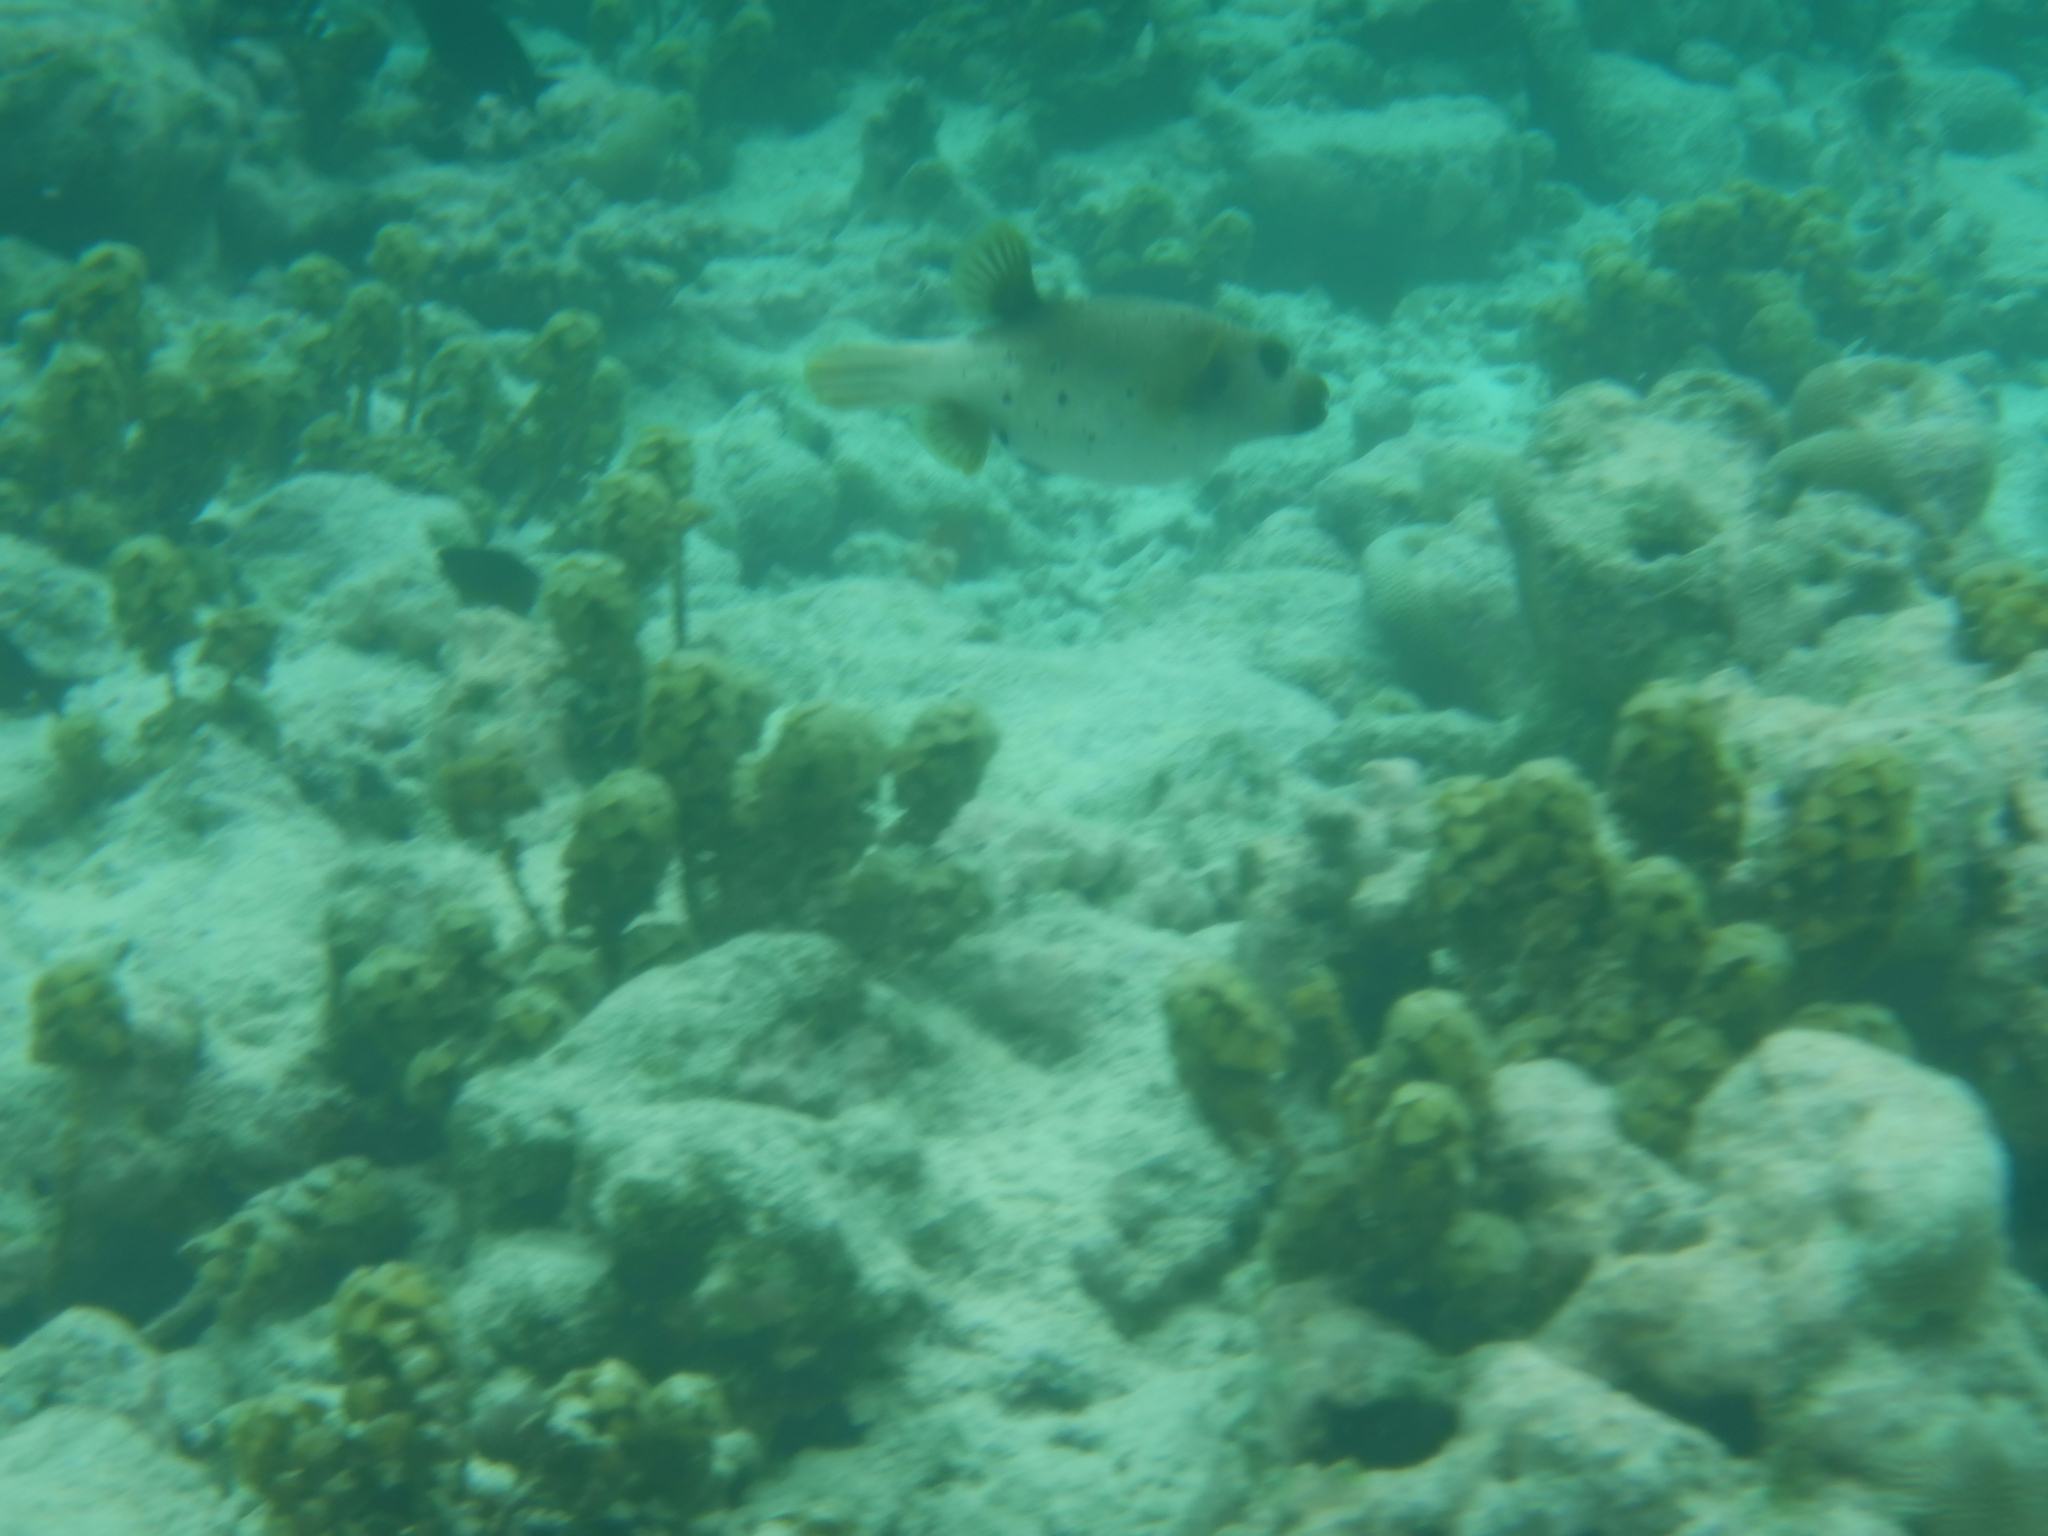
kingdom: Animalia
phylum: Chordata
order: Tetraodontiformes
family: Tetraodontidae
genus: Arothron
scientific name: Arothron nigropunctatus
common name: Black spotted blow fish
